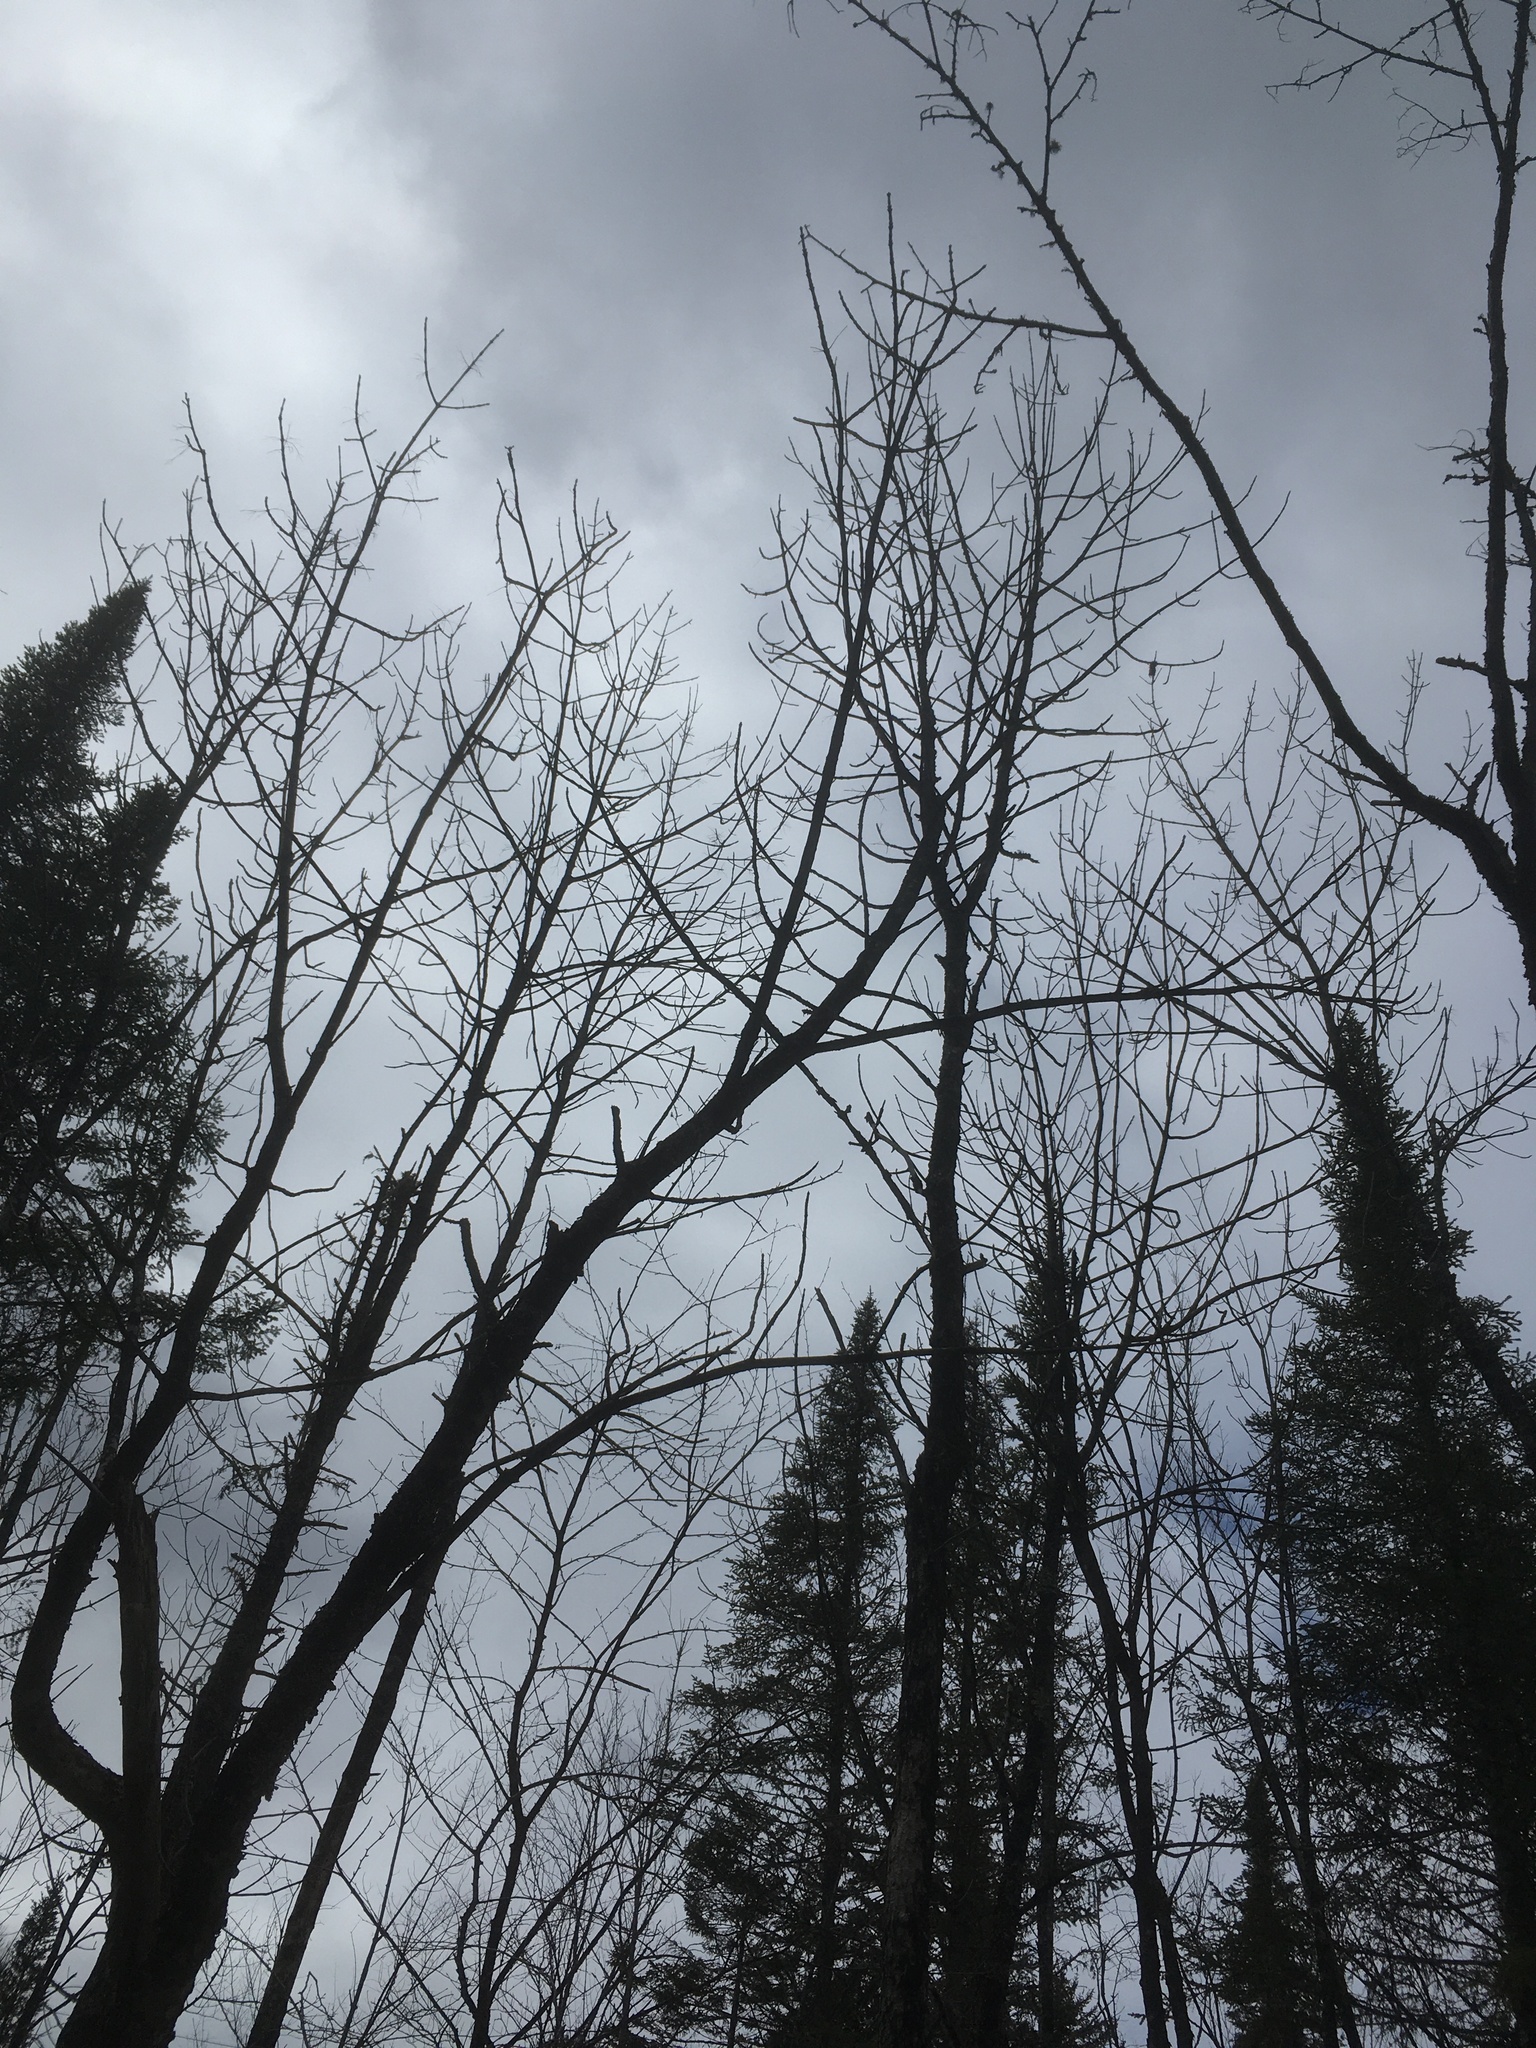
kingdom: Plantae
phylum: Tracheophyta
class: Magnoliopsida
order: Lamiales
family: Oleaceae
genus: Fraxinus
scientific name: Fraxinus nigra
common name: Black ash
